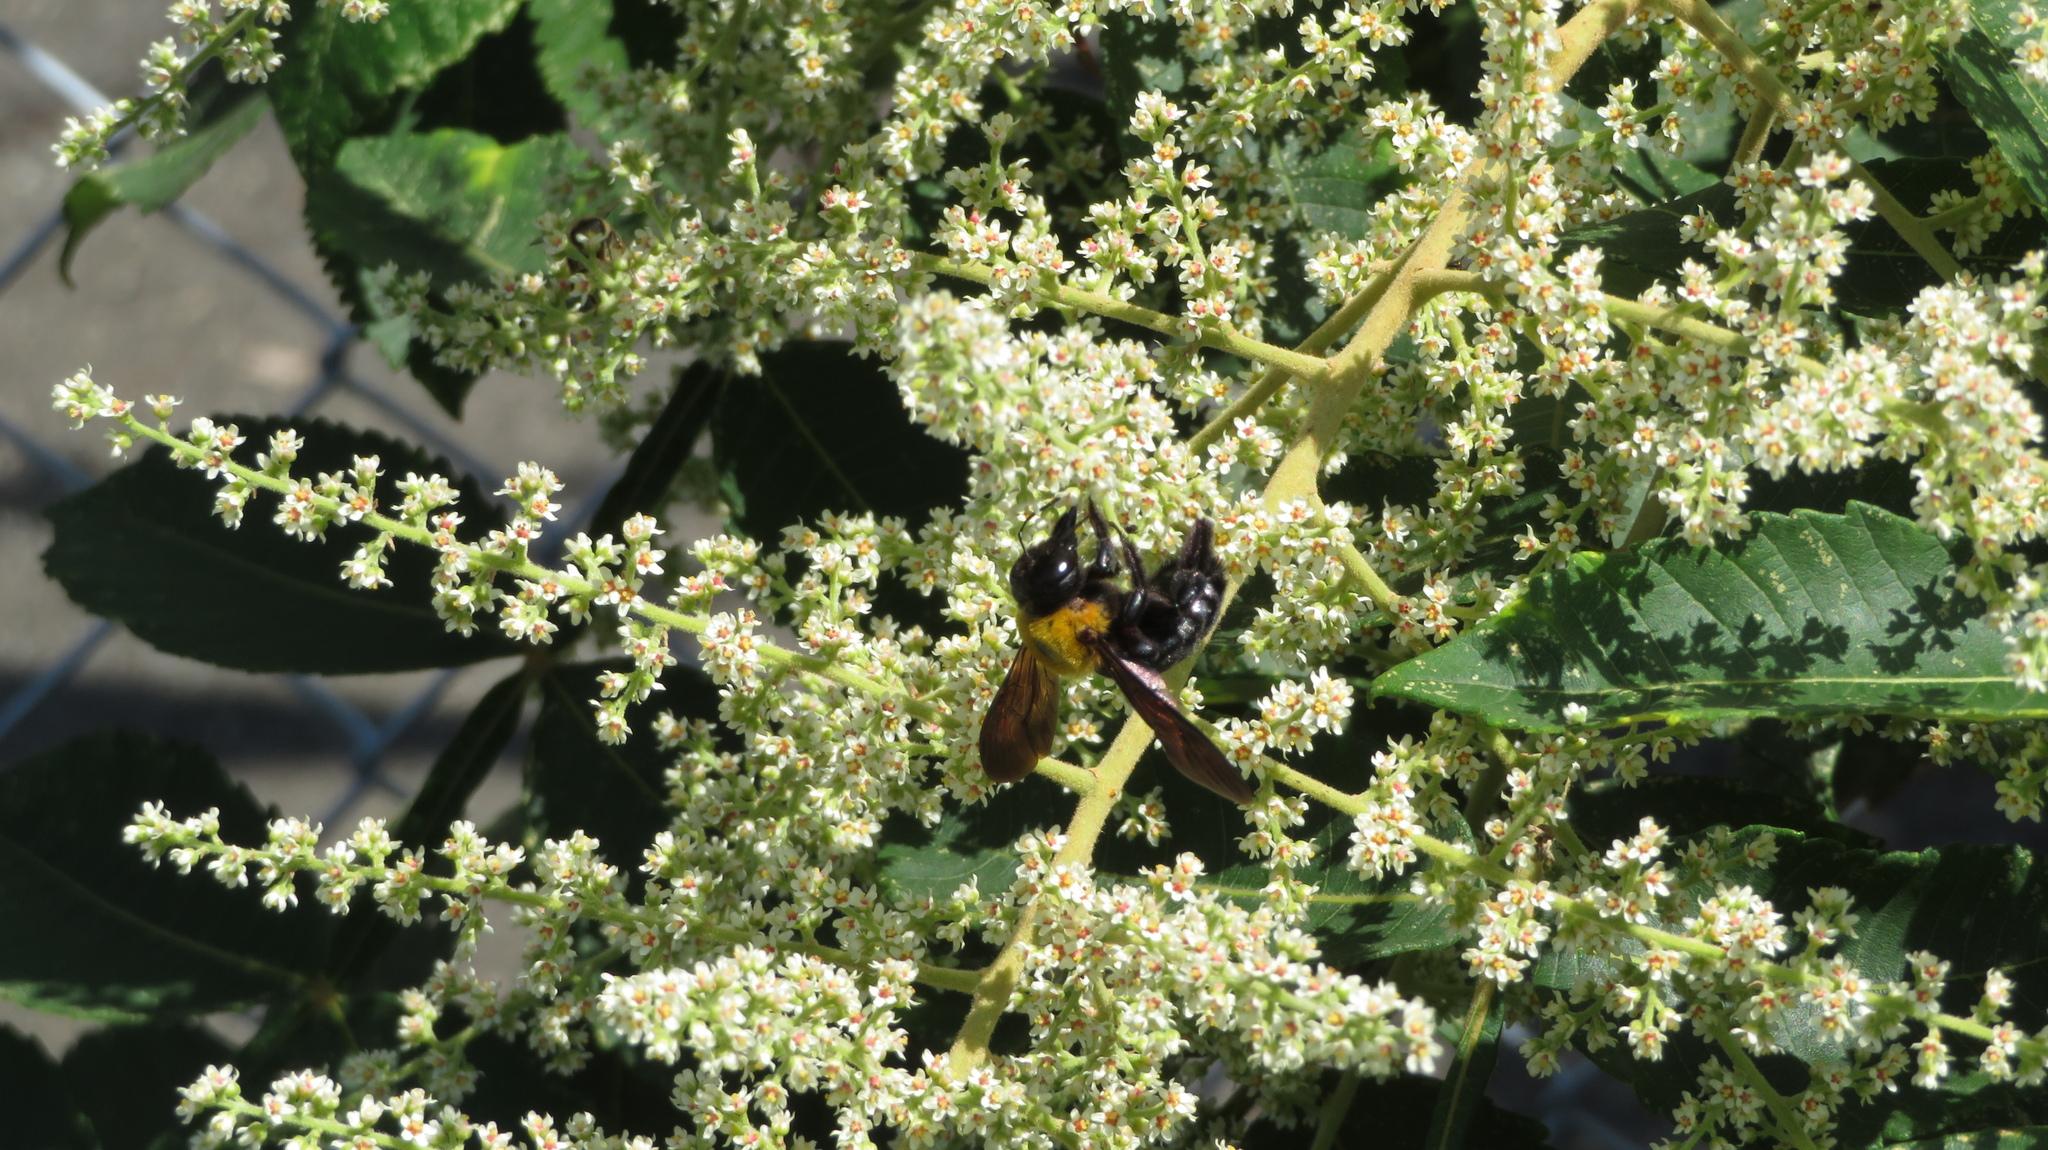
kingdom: Animalia
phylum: Arthropoda
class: Insecta
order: Hymenoptera
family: Apidae
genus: Xylocopa
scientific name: Xylocopa appendiculata
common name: Japanese carpenter bee
